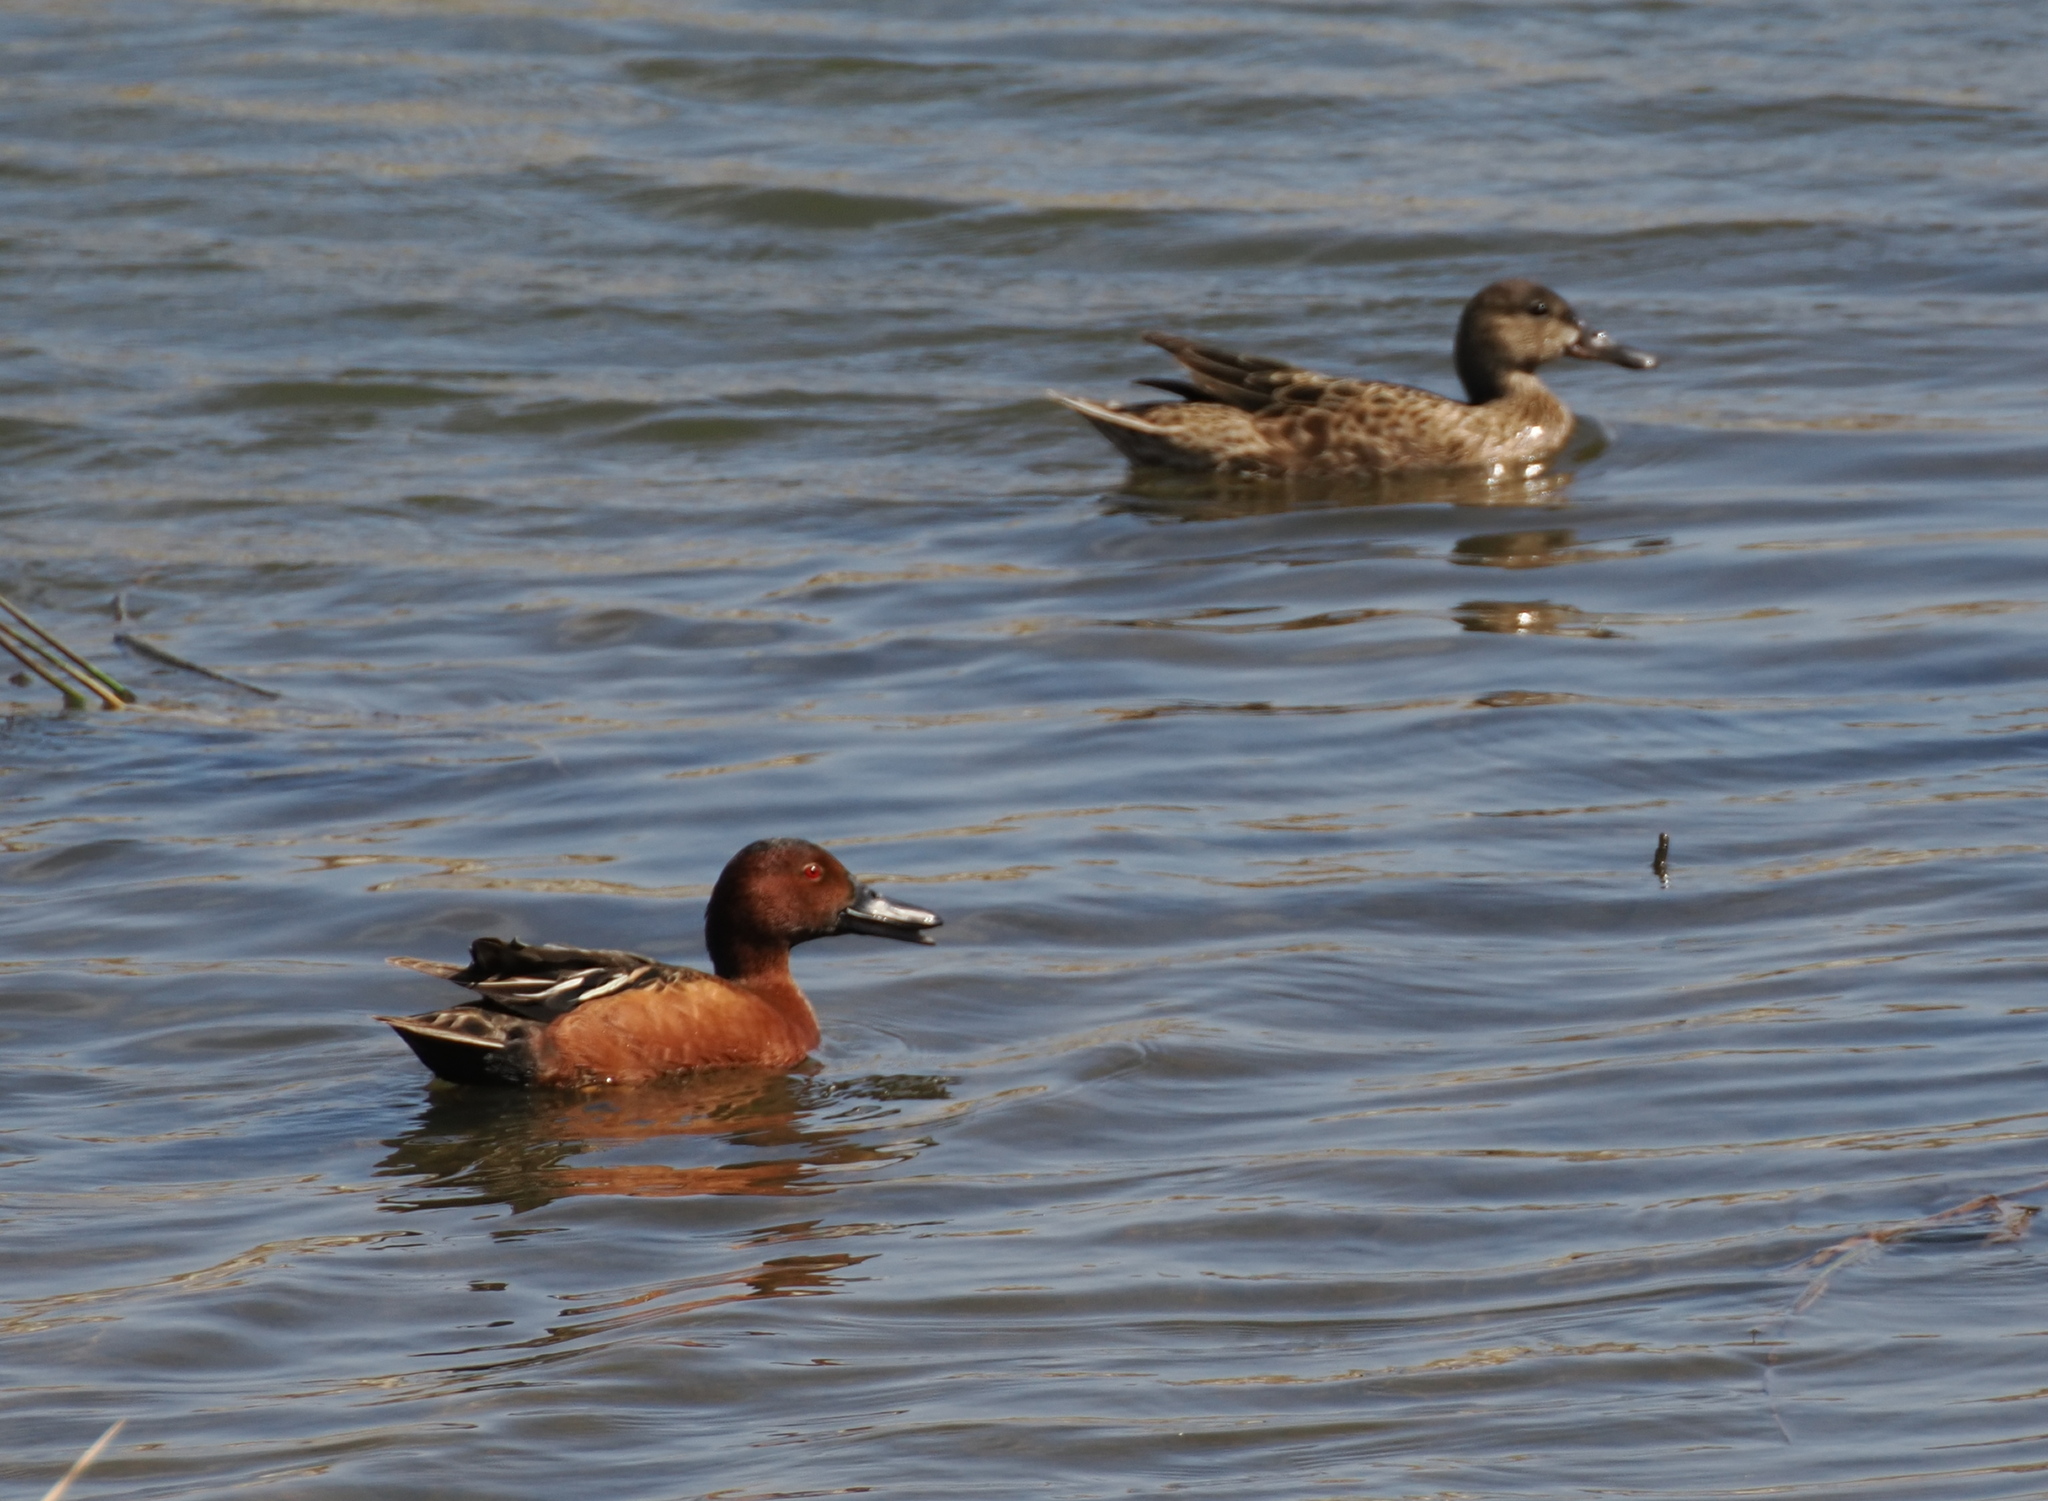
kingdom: Animalia
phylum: Chordata
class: Aves
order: Anseriformes
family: Anatidae
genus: Spatula
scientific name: Spatula cyanoptera
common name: Cinnamon teal
